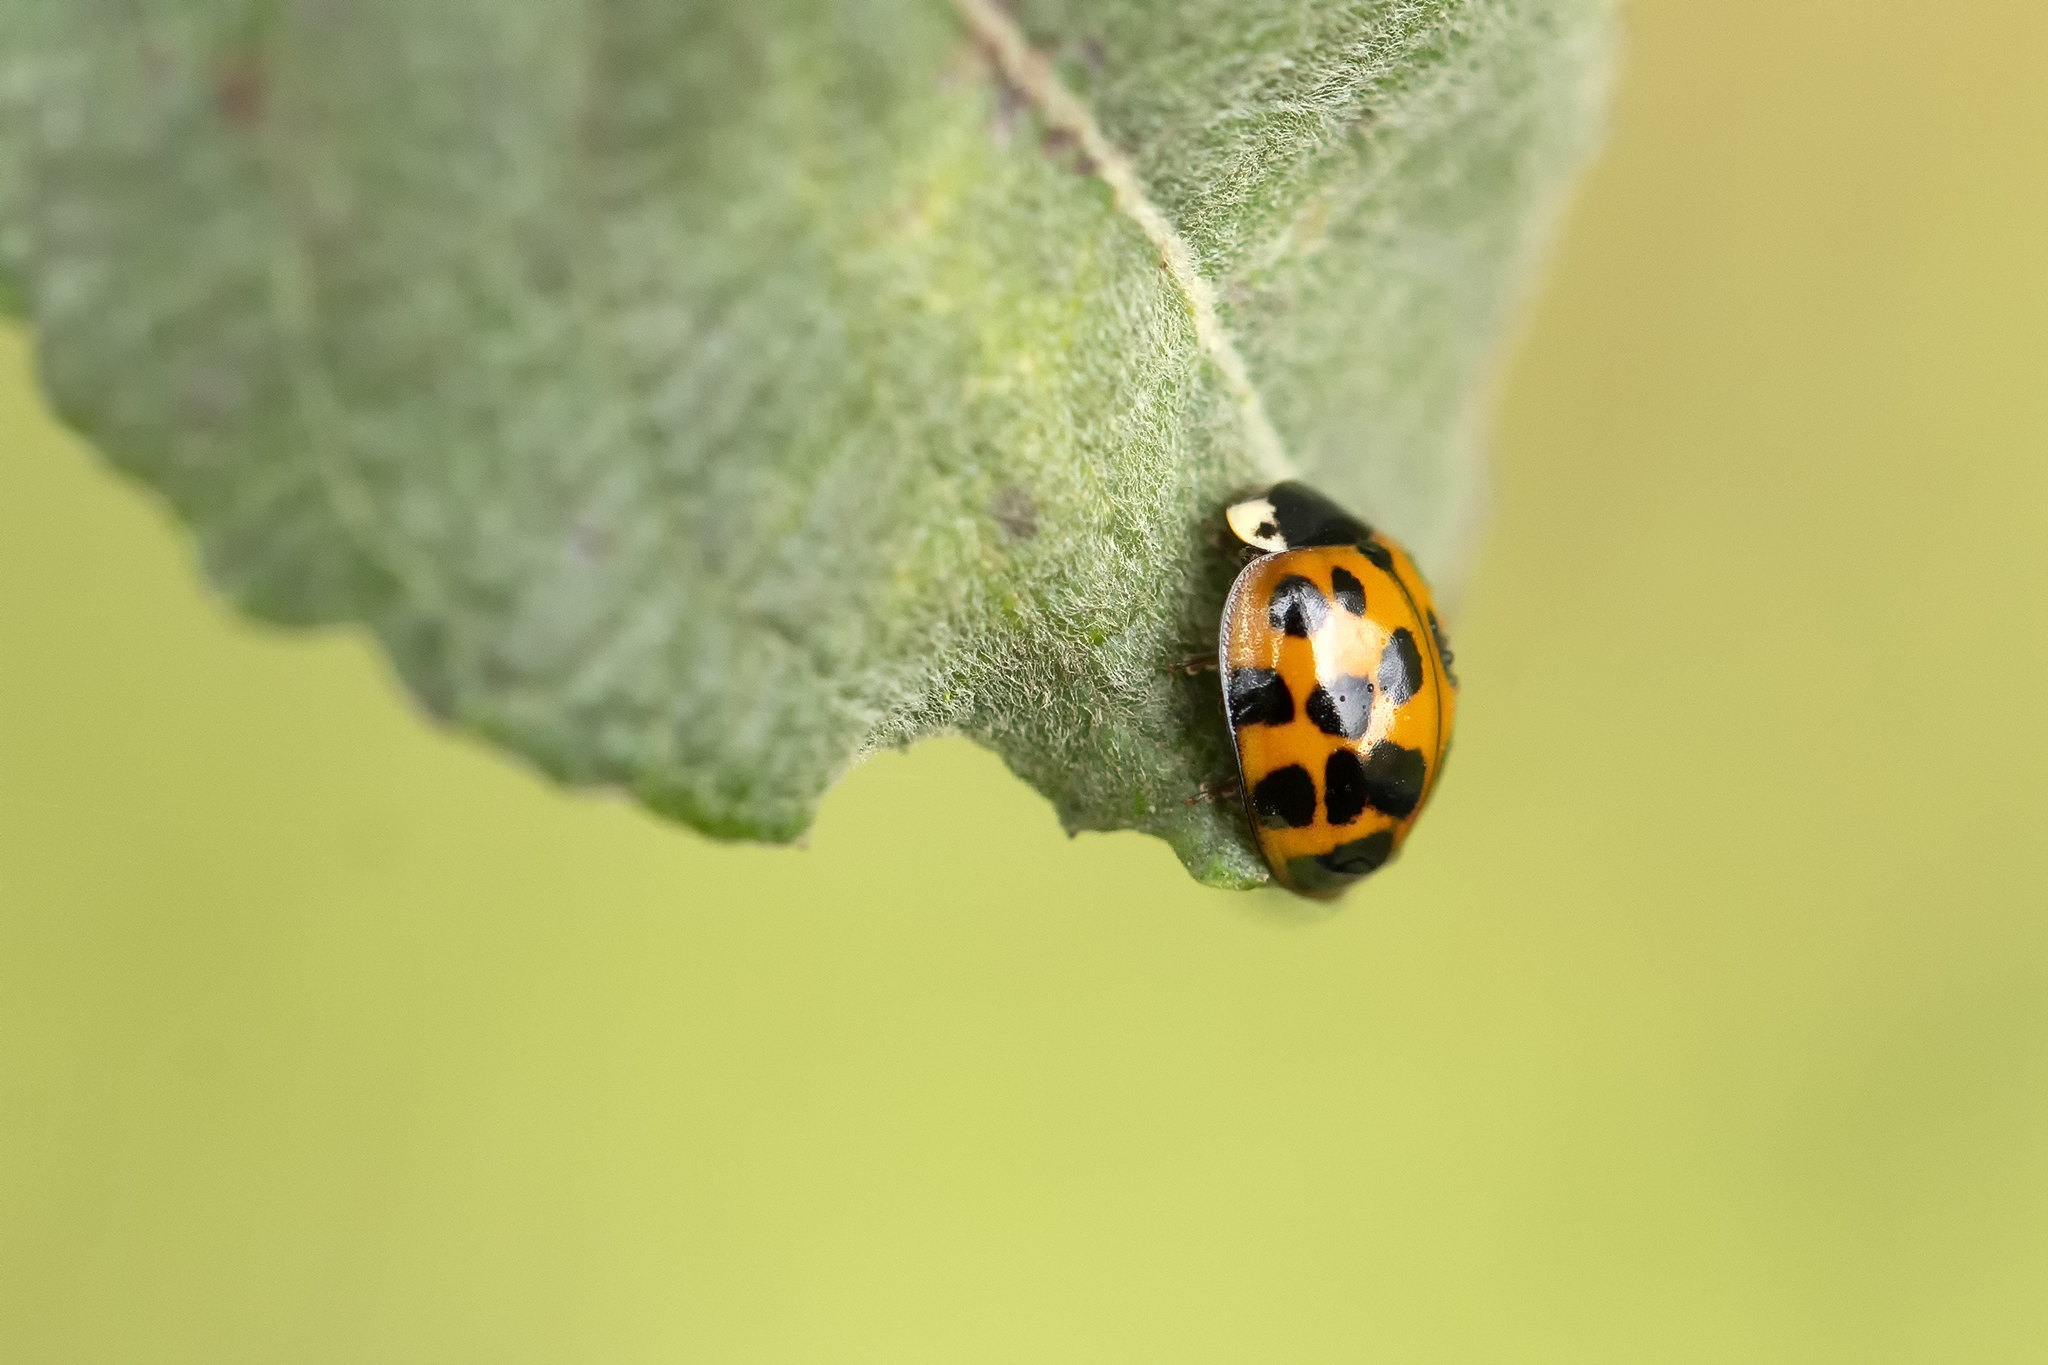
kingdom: Animalia
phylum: Arthropoda
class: Insecta
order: Coleoptera
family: Coccinellidae
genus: Harmonia
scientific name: Harmonia axyridis
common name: Harlequin ladybird
